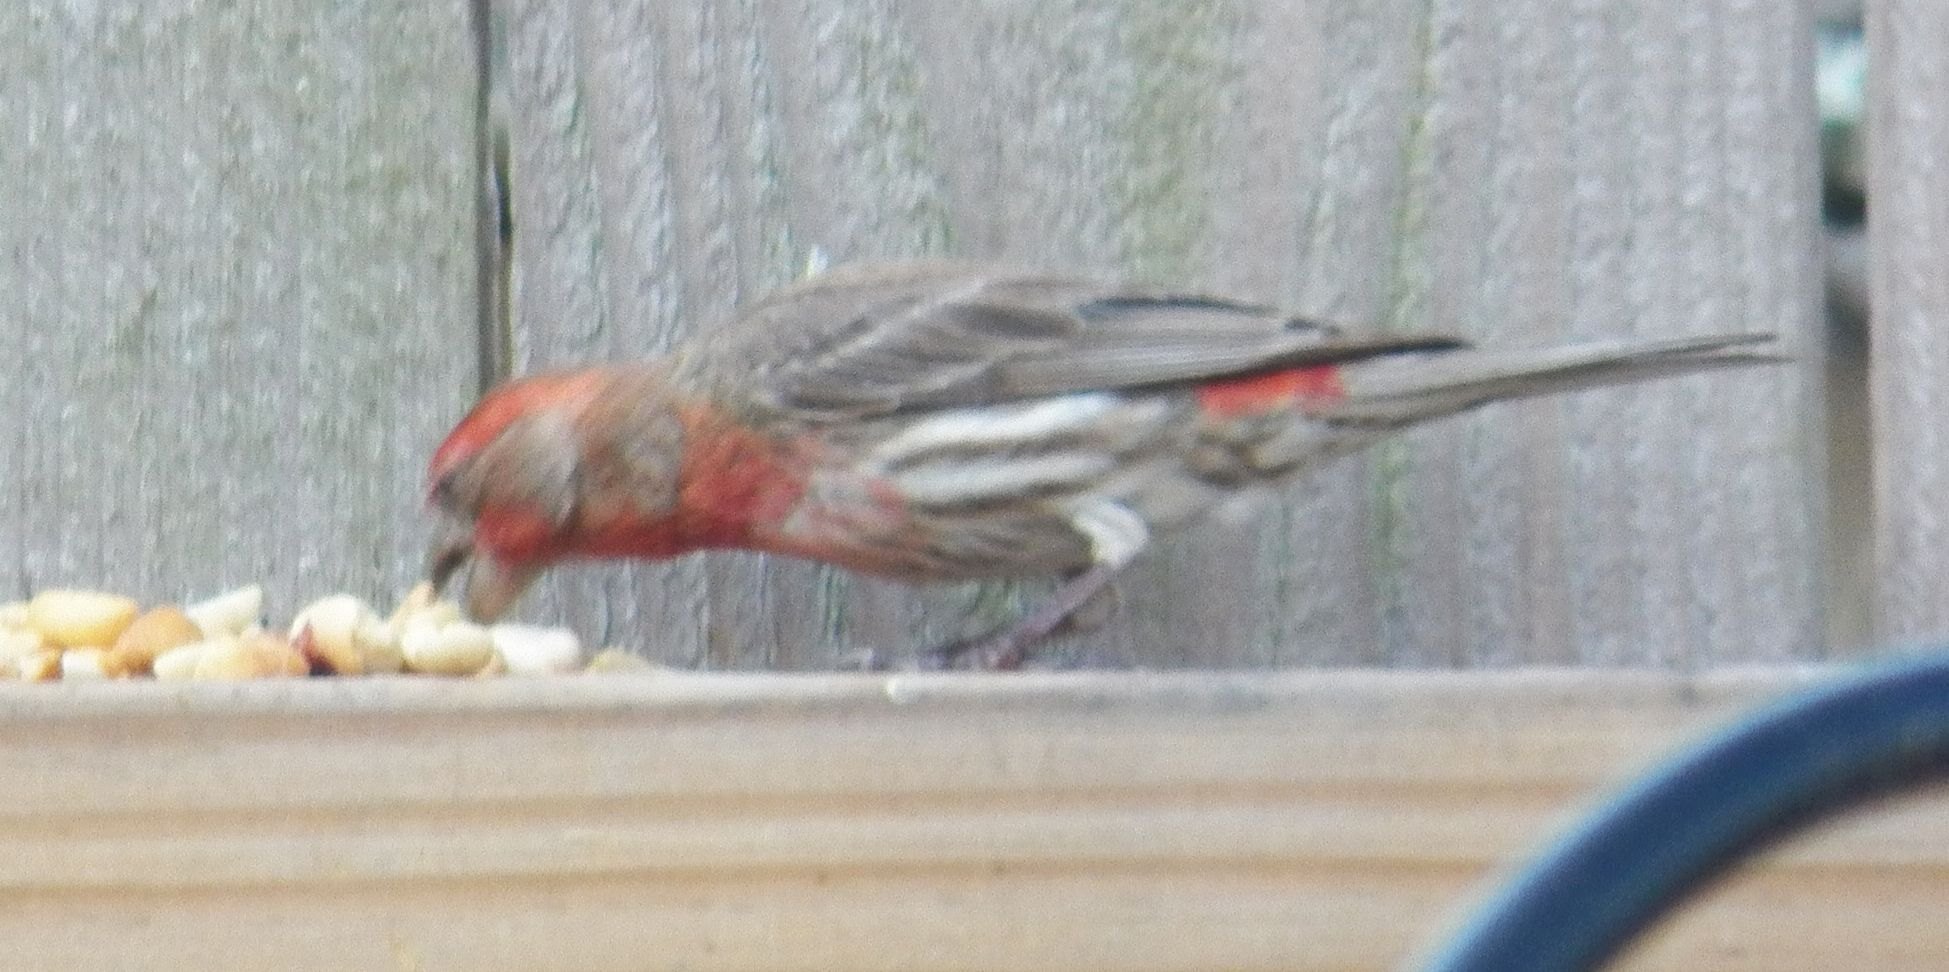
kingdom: Animalia
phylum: Chordata
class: Aves
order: Passeriformes
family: Fringillidae
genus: Haemorhous
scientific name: Haemorhous mexicanus
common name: House finch
